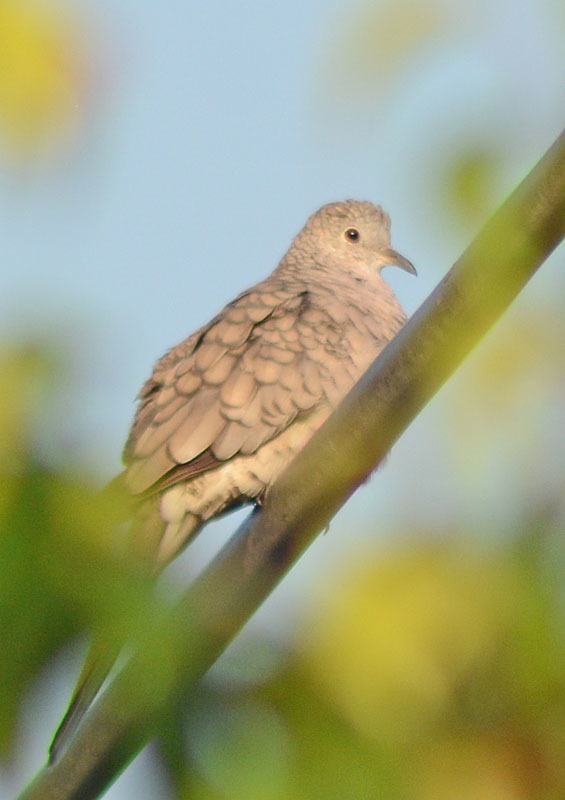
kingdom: Animalia
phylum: Chordata
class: Aves
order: Columbiformes
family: Columbidae
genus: Columbina
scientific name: Columbina inca
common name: Inca dove
